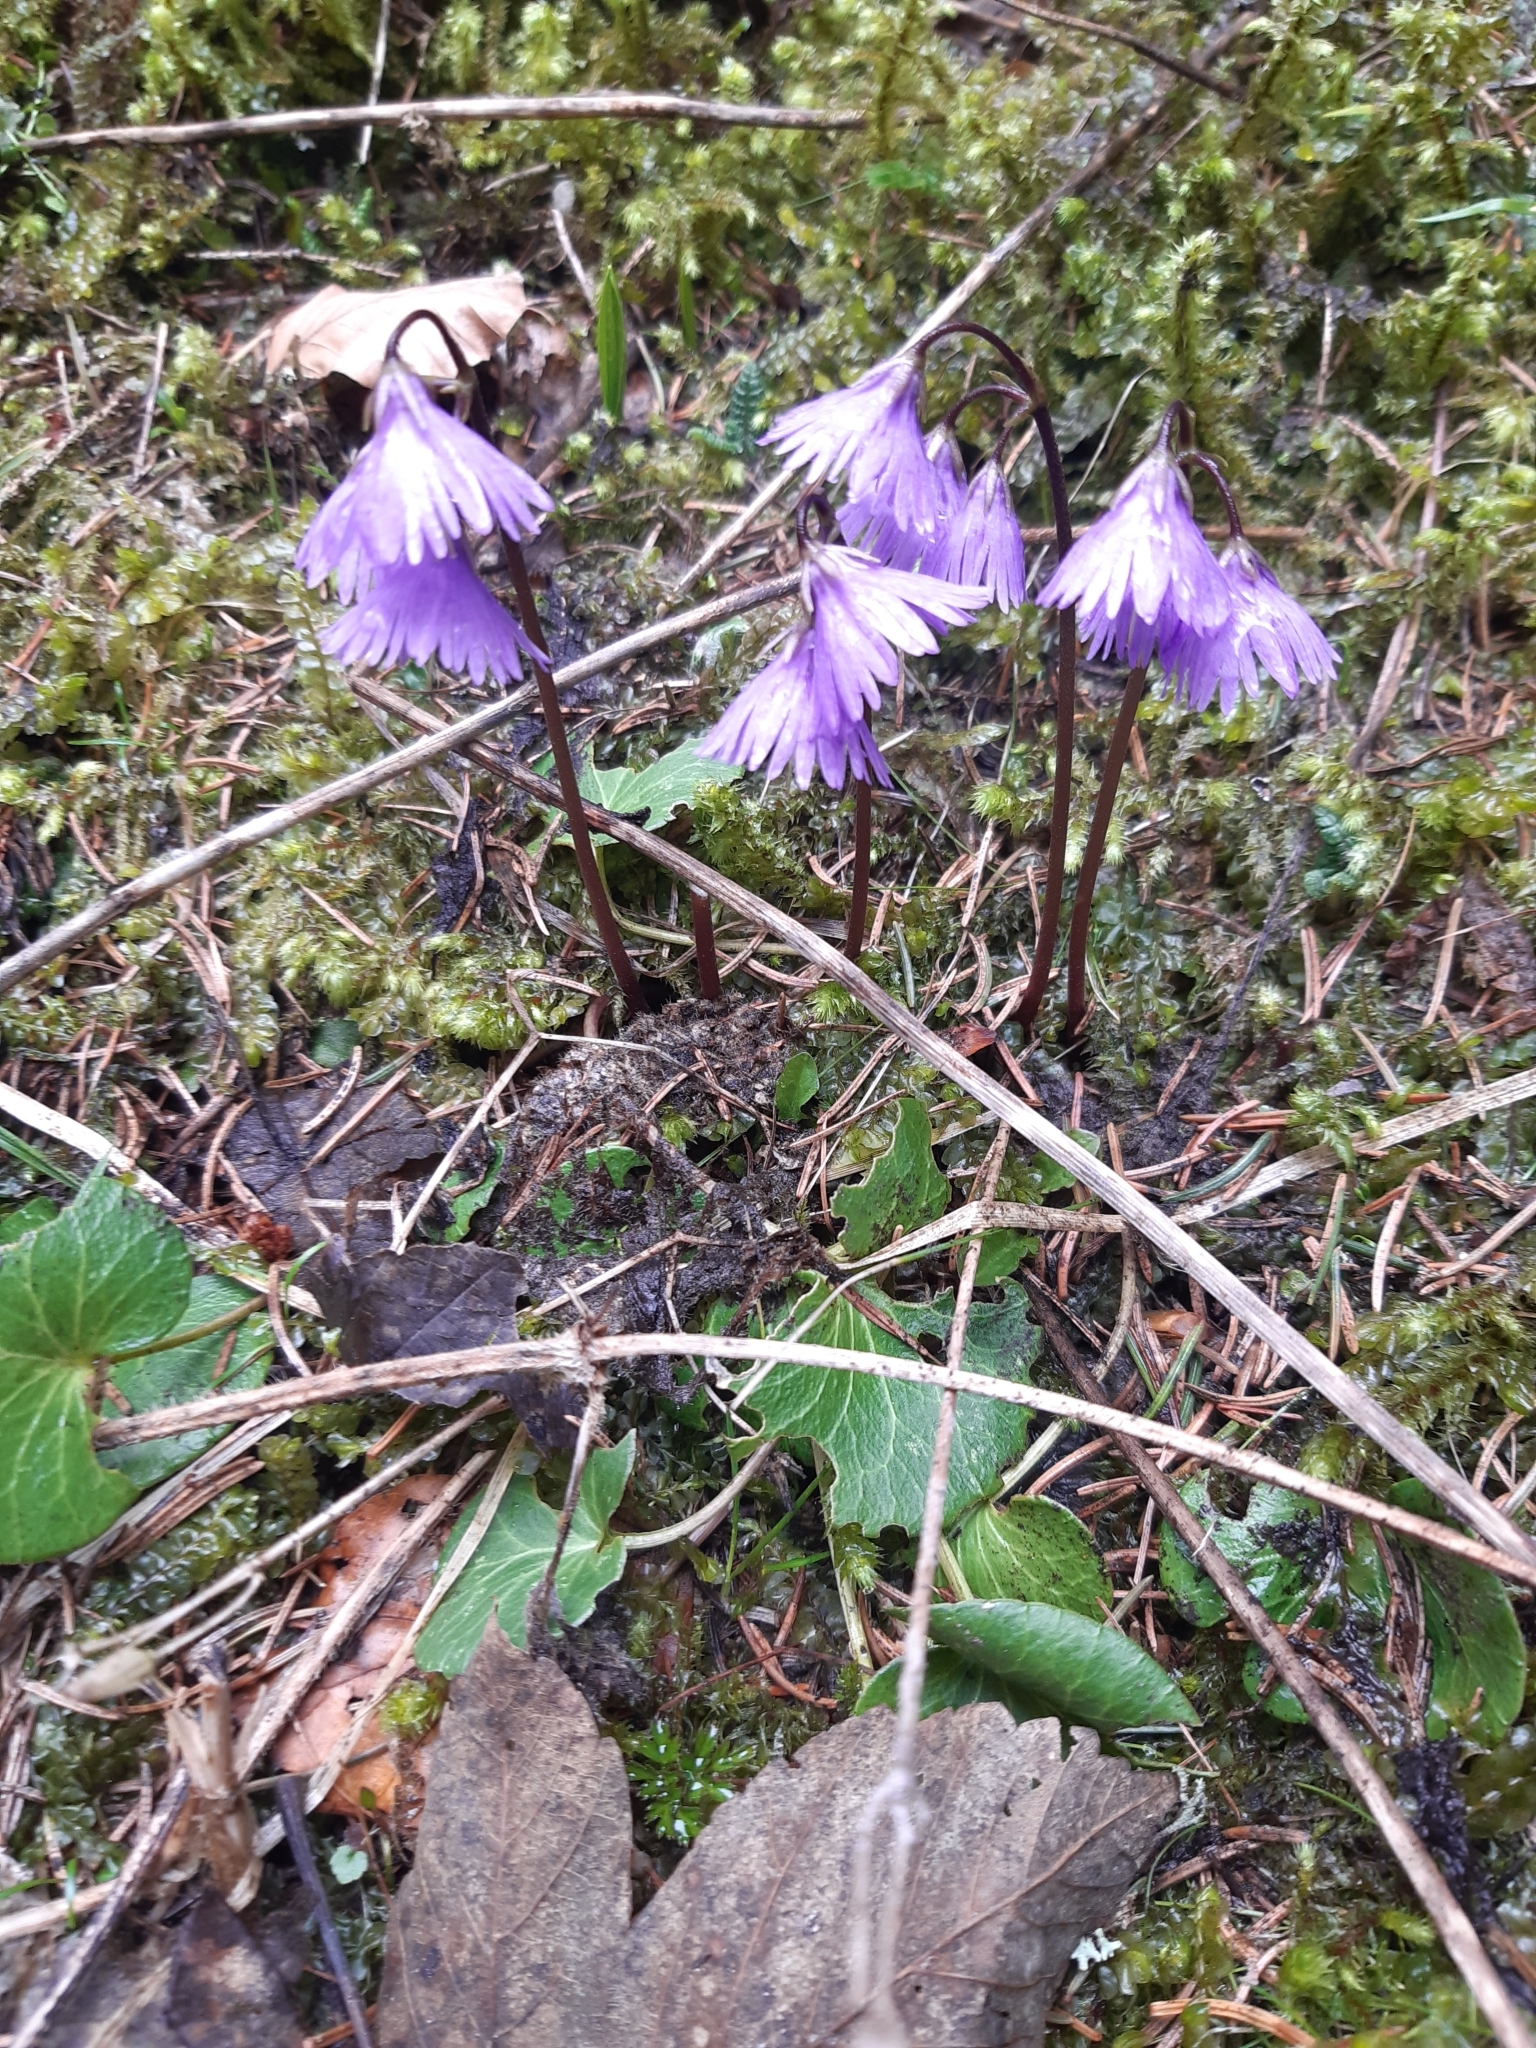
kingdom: Plantae
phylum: Tracheophyta
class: Magnoliopsida
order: Ericales
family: Primulaceae
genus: Soldanella
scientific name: Soldanella alpina
